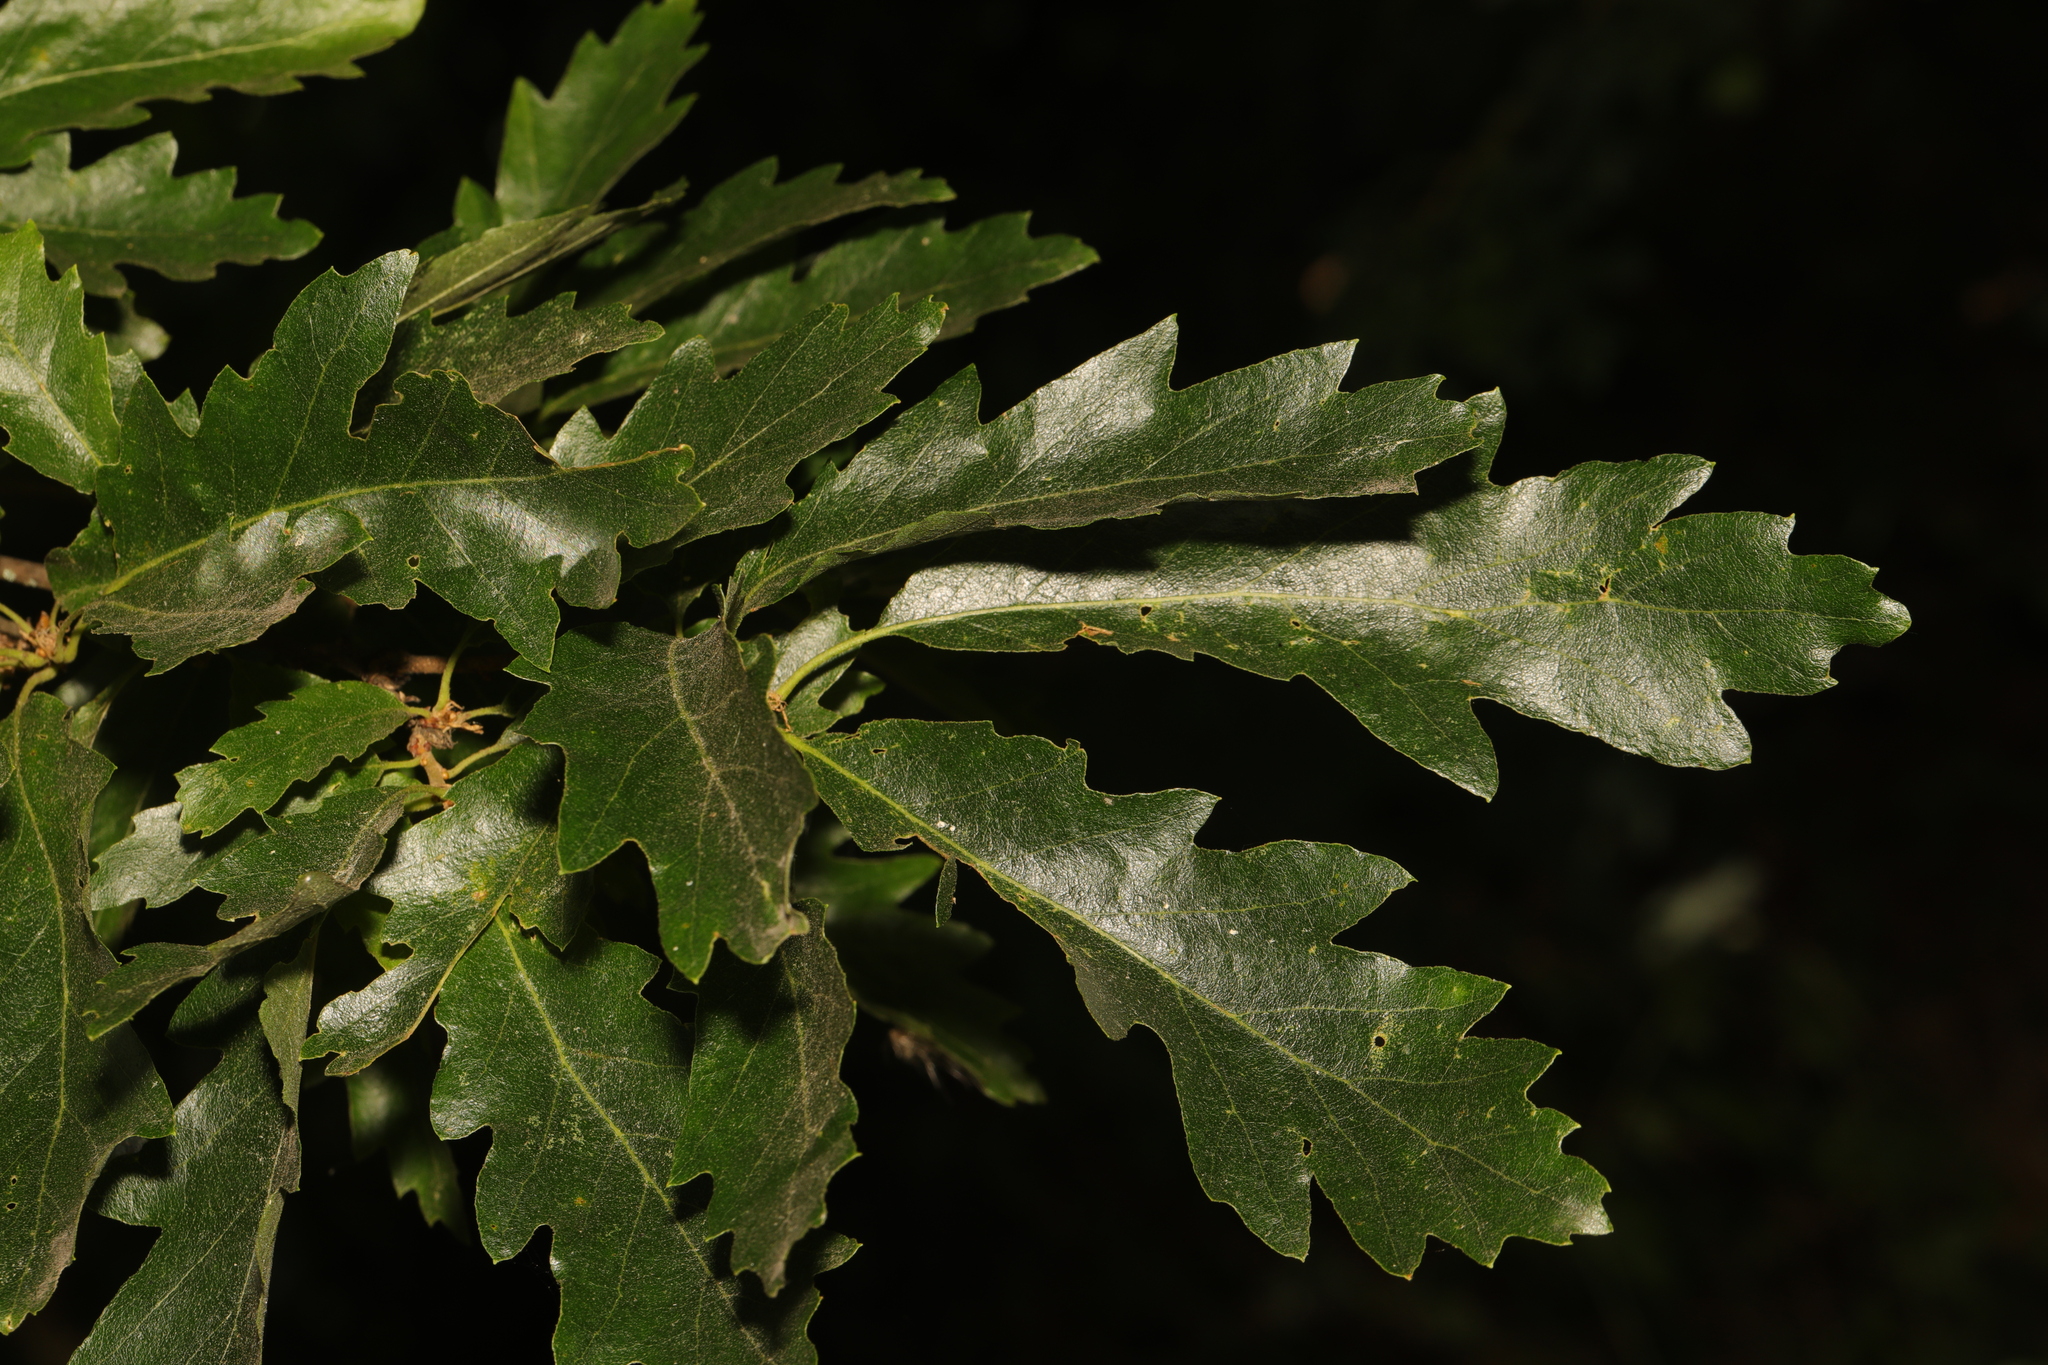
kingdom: Plantae
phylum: Tracheophyta
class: Magnoliopsida
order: Fagales
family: Fagaceae
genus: Quercus
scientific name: Quercus cerris
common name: Turkey oak
